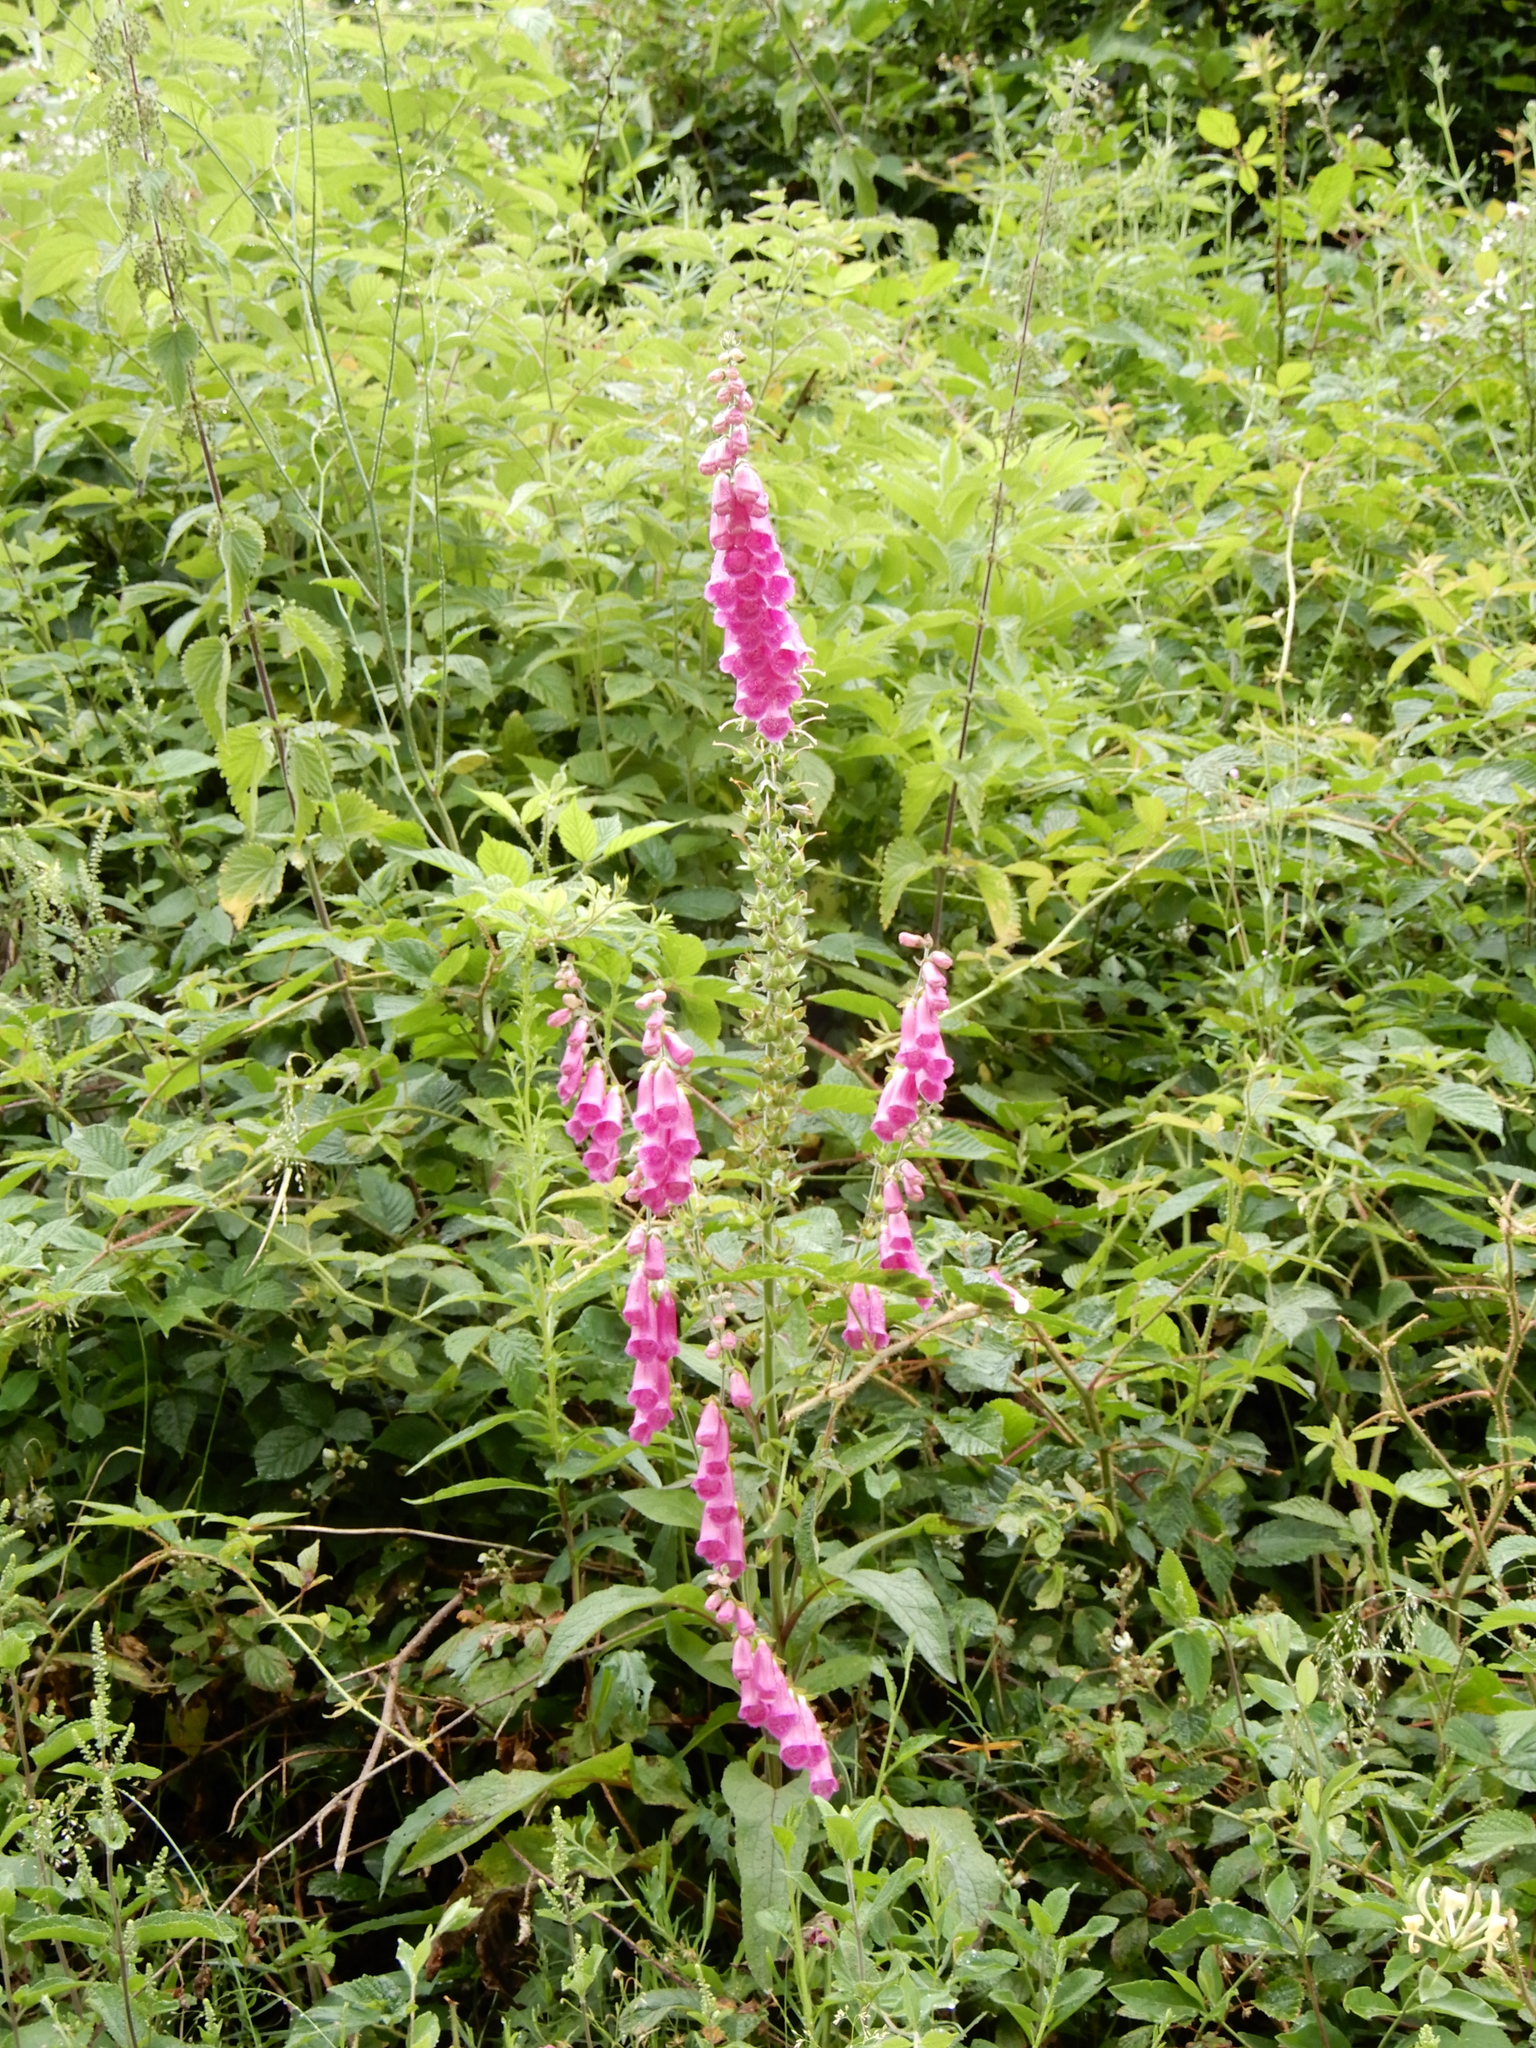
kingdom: Plantae
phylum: Tracheophyta
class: Magnoliopsida
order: Lamiales
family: Plantaginaceae
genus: Digitalis
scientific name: Digitalis purpurea
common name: Foxglove
